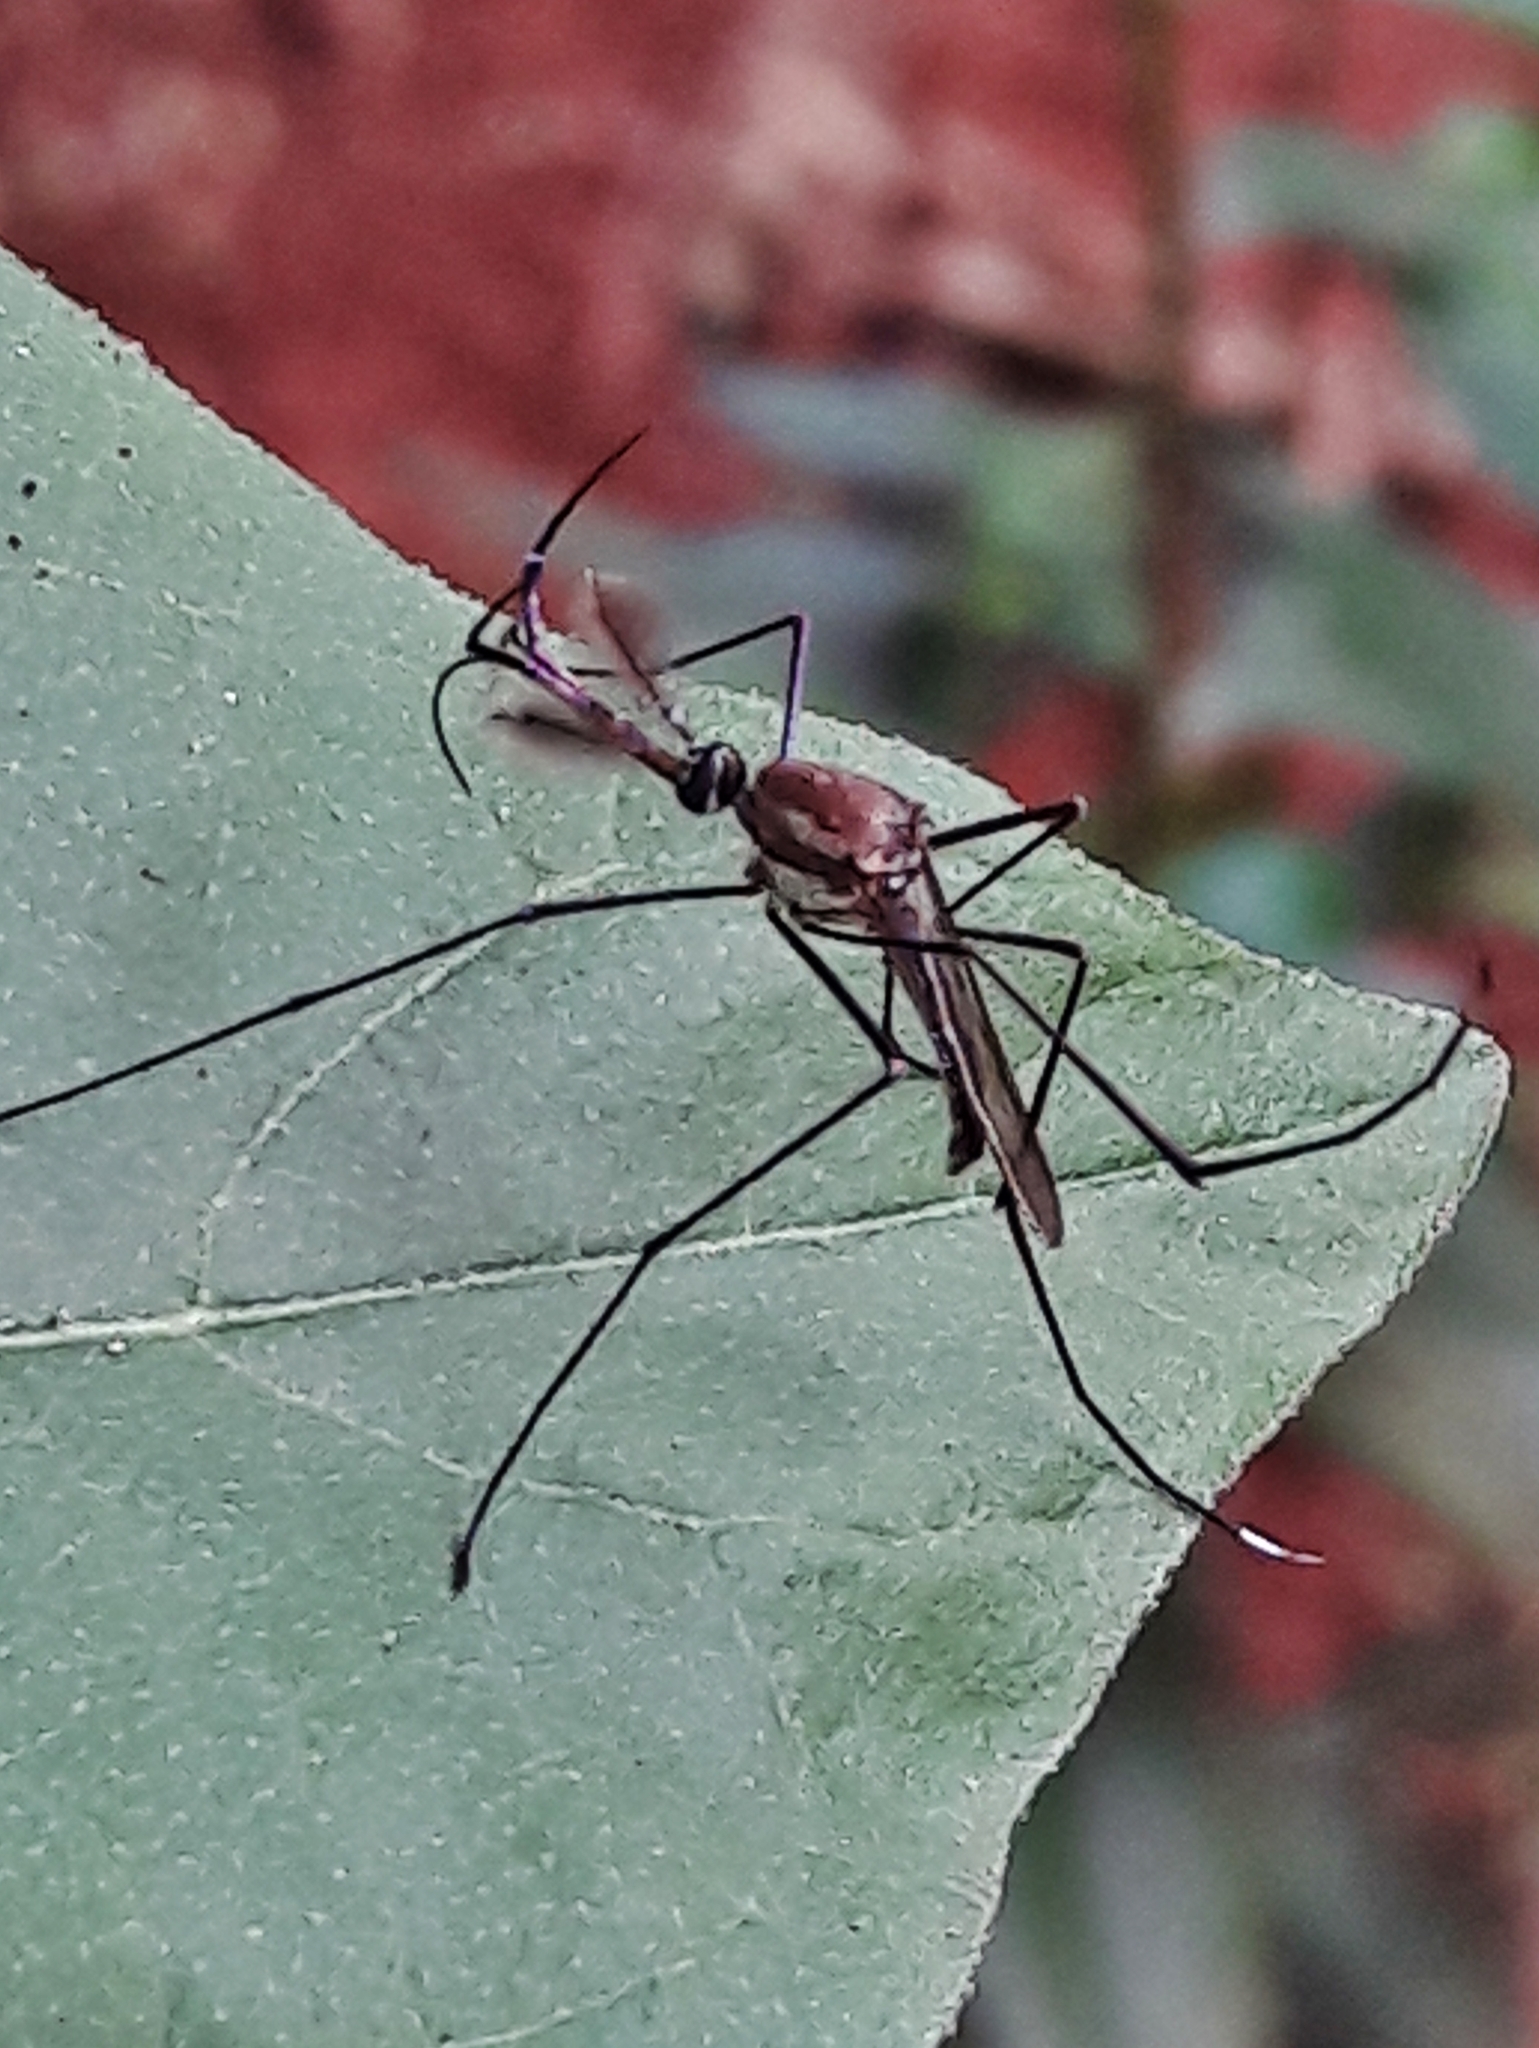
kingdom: Animalia
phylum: Arthropoda
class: Insecta
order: Diptera
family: Culicidae
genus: Toxorhynchites
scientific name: Toxorhynchites theobaldi
